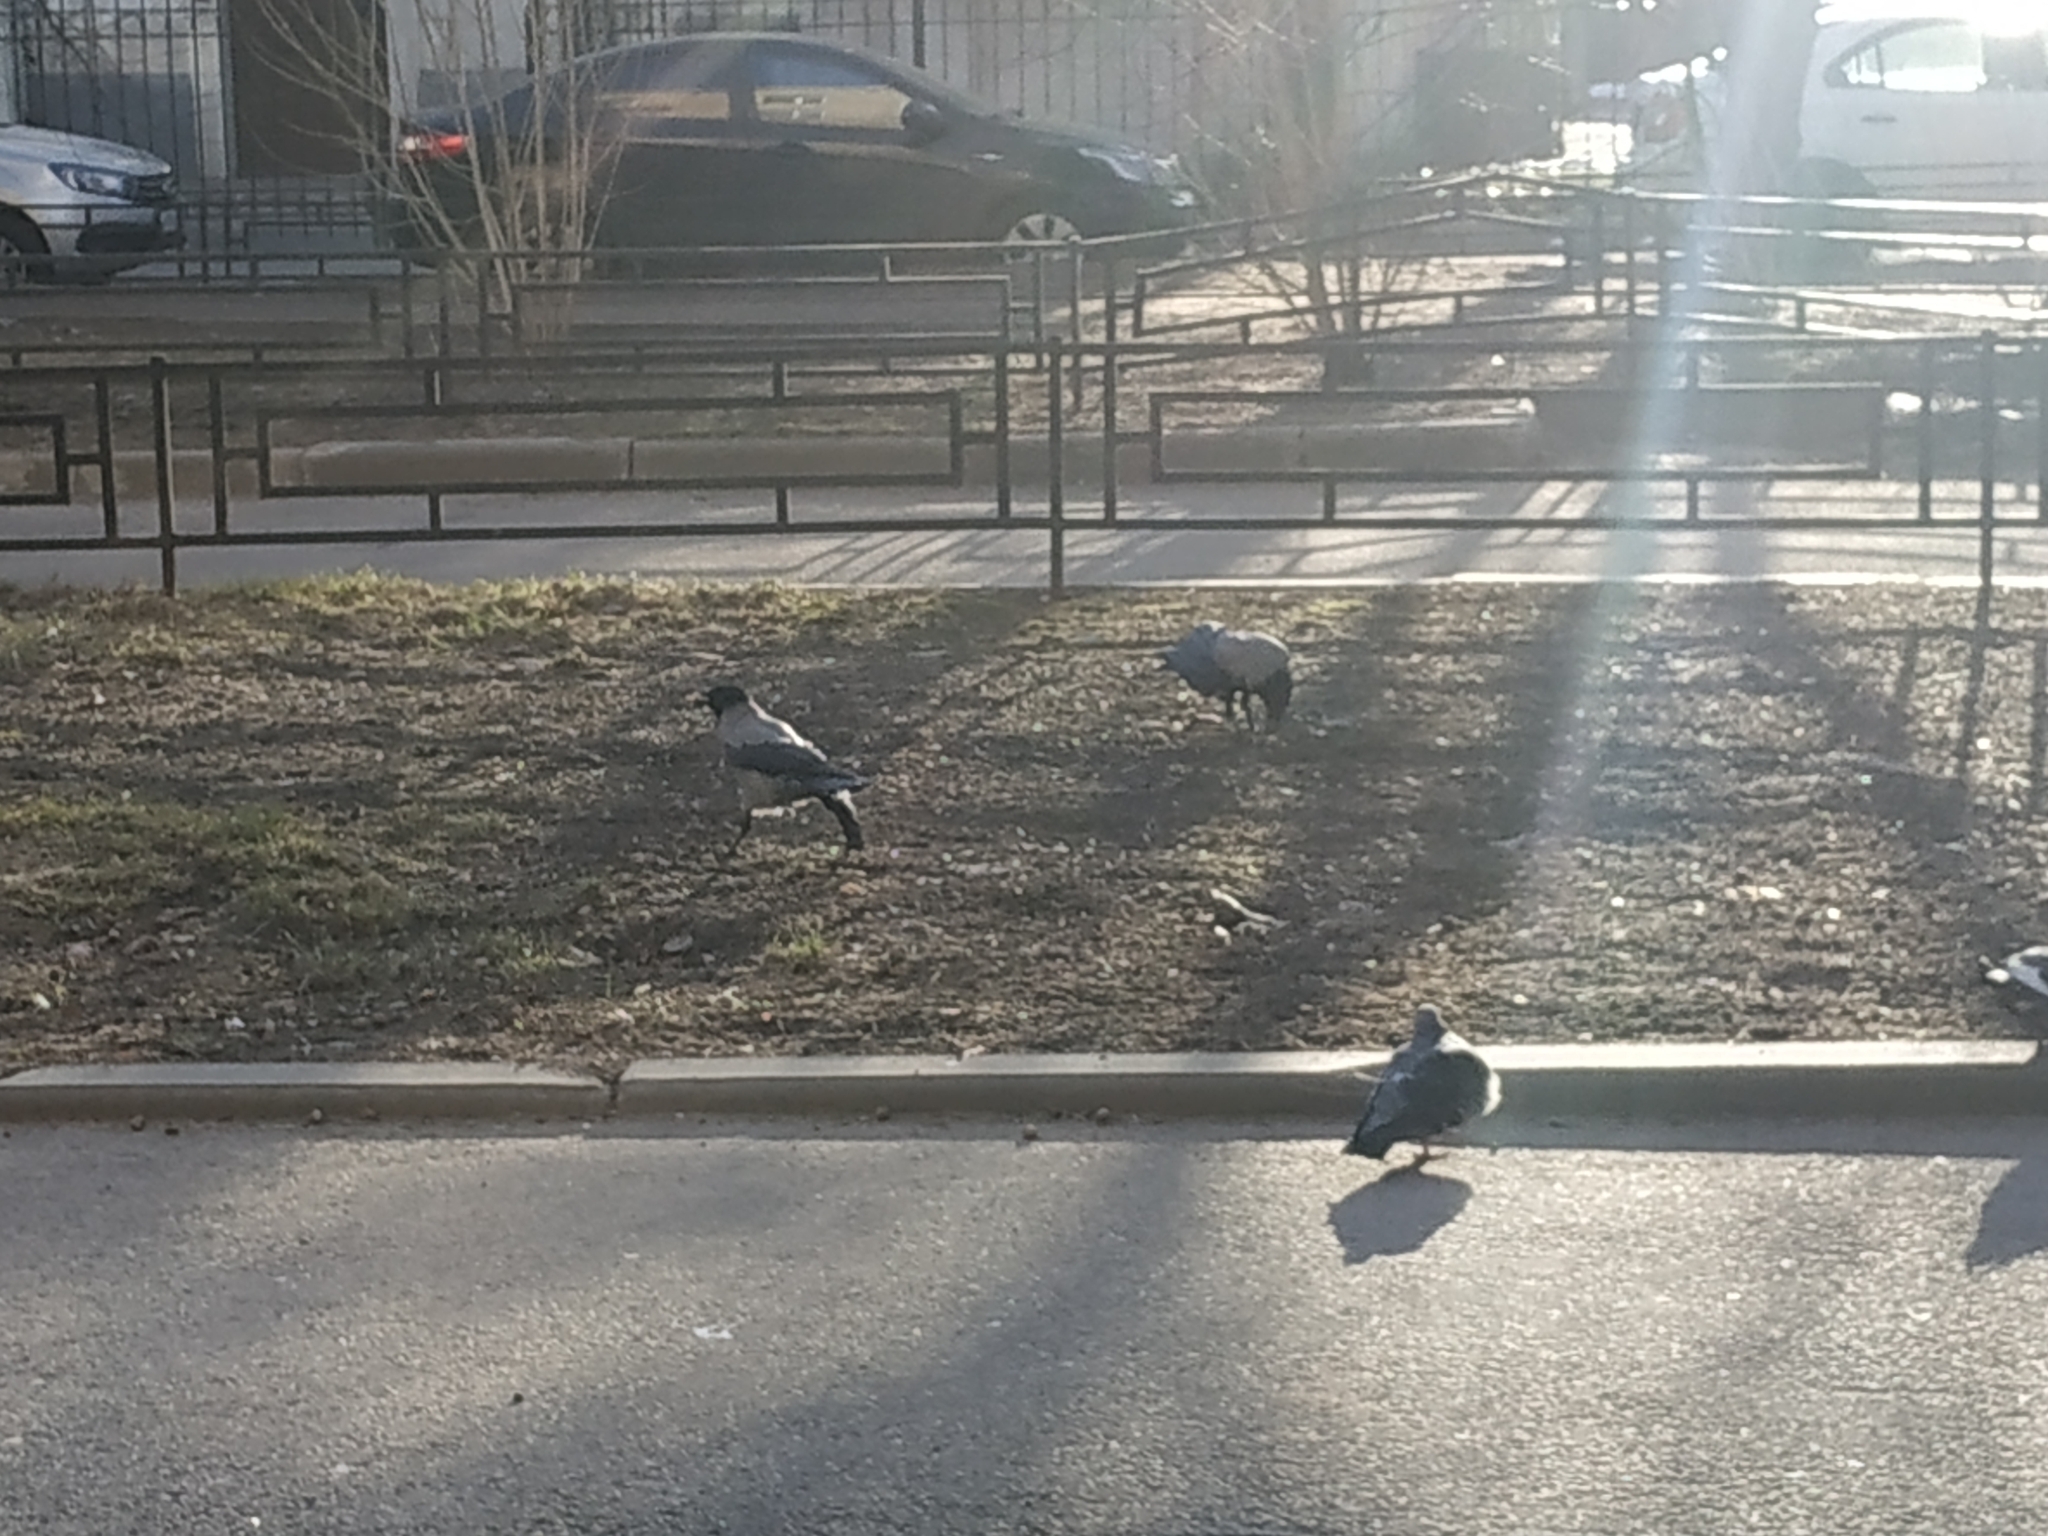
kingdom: Animalia
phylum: Chordata
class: Aves
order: Passeriformes
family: Corvidae
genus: Corvus
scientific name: Corvus cornix
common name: Hooded crow
